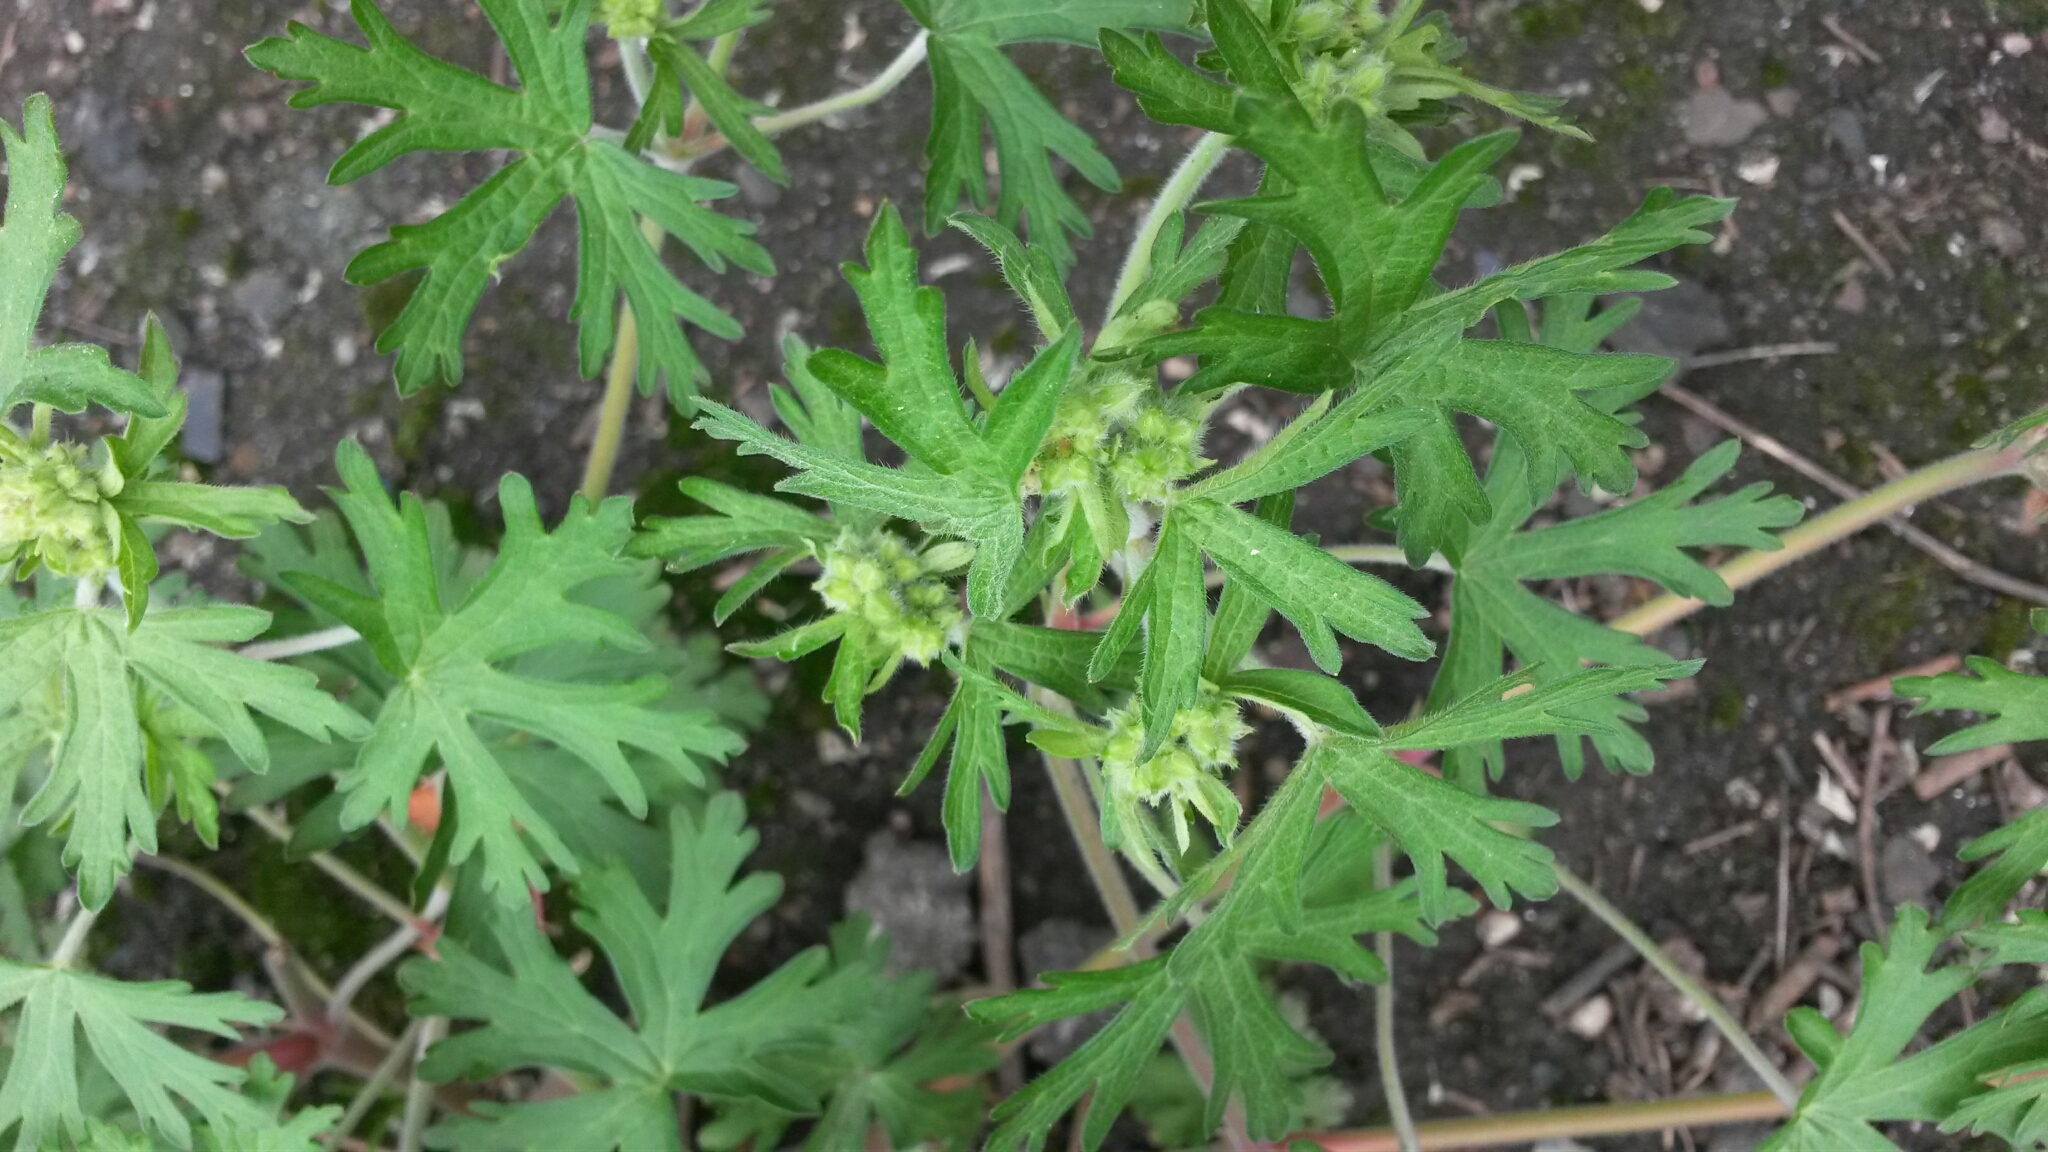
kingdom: Plantae
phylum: Tracheophyta
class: Magnoliopsida
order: Geraniales
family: Geraniaceae
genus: Geranium
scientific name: Geranium carolinianum
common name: Carolina crane's-bill
